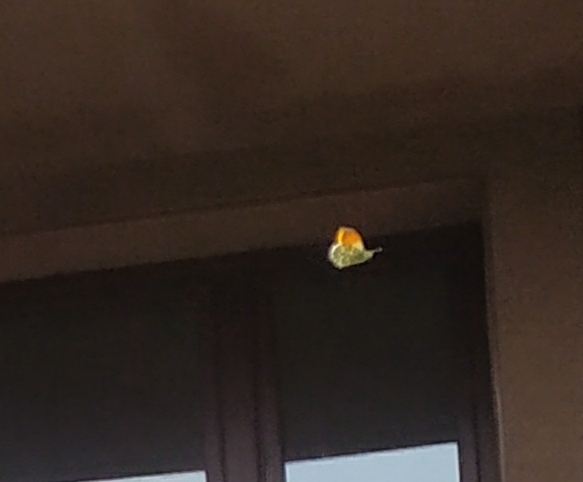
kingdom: Animalia
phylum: Arthropoda
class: Insecta
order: Lepidoptera
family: Pieridae
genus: Anthocharis
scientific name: Anthocharis cardamines
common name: Orange-tip
